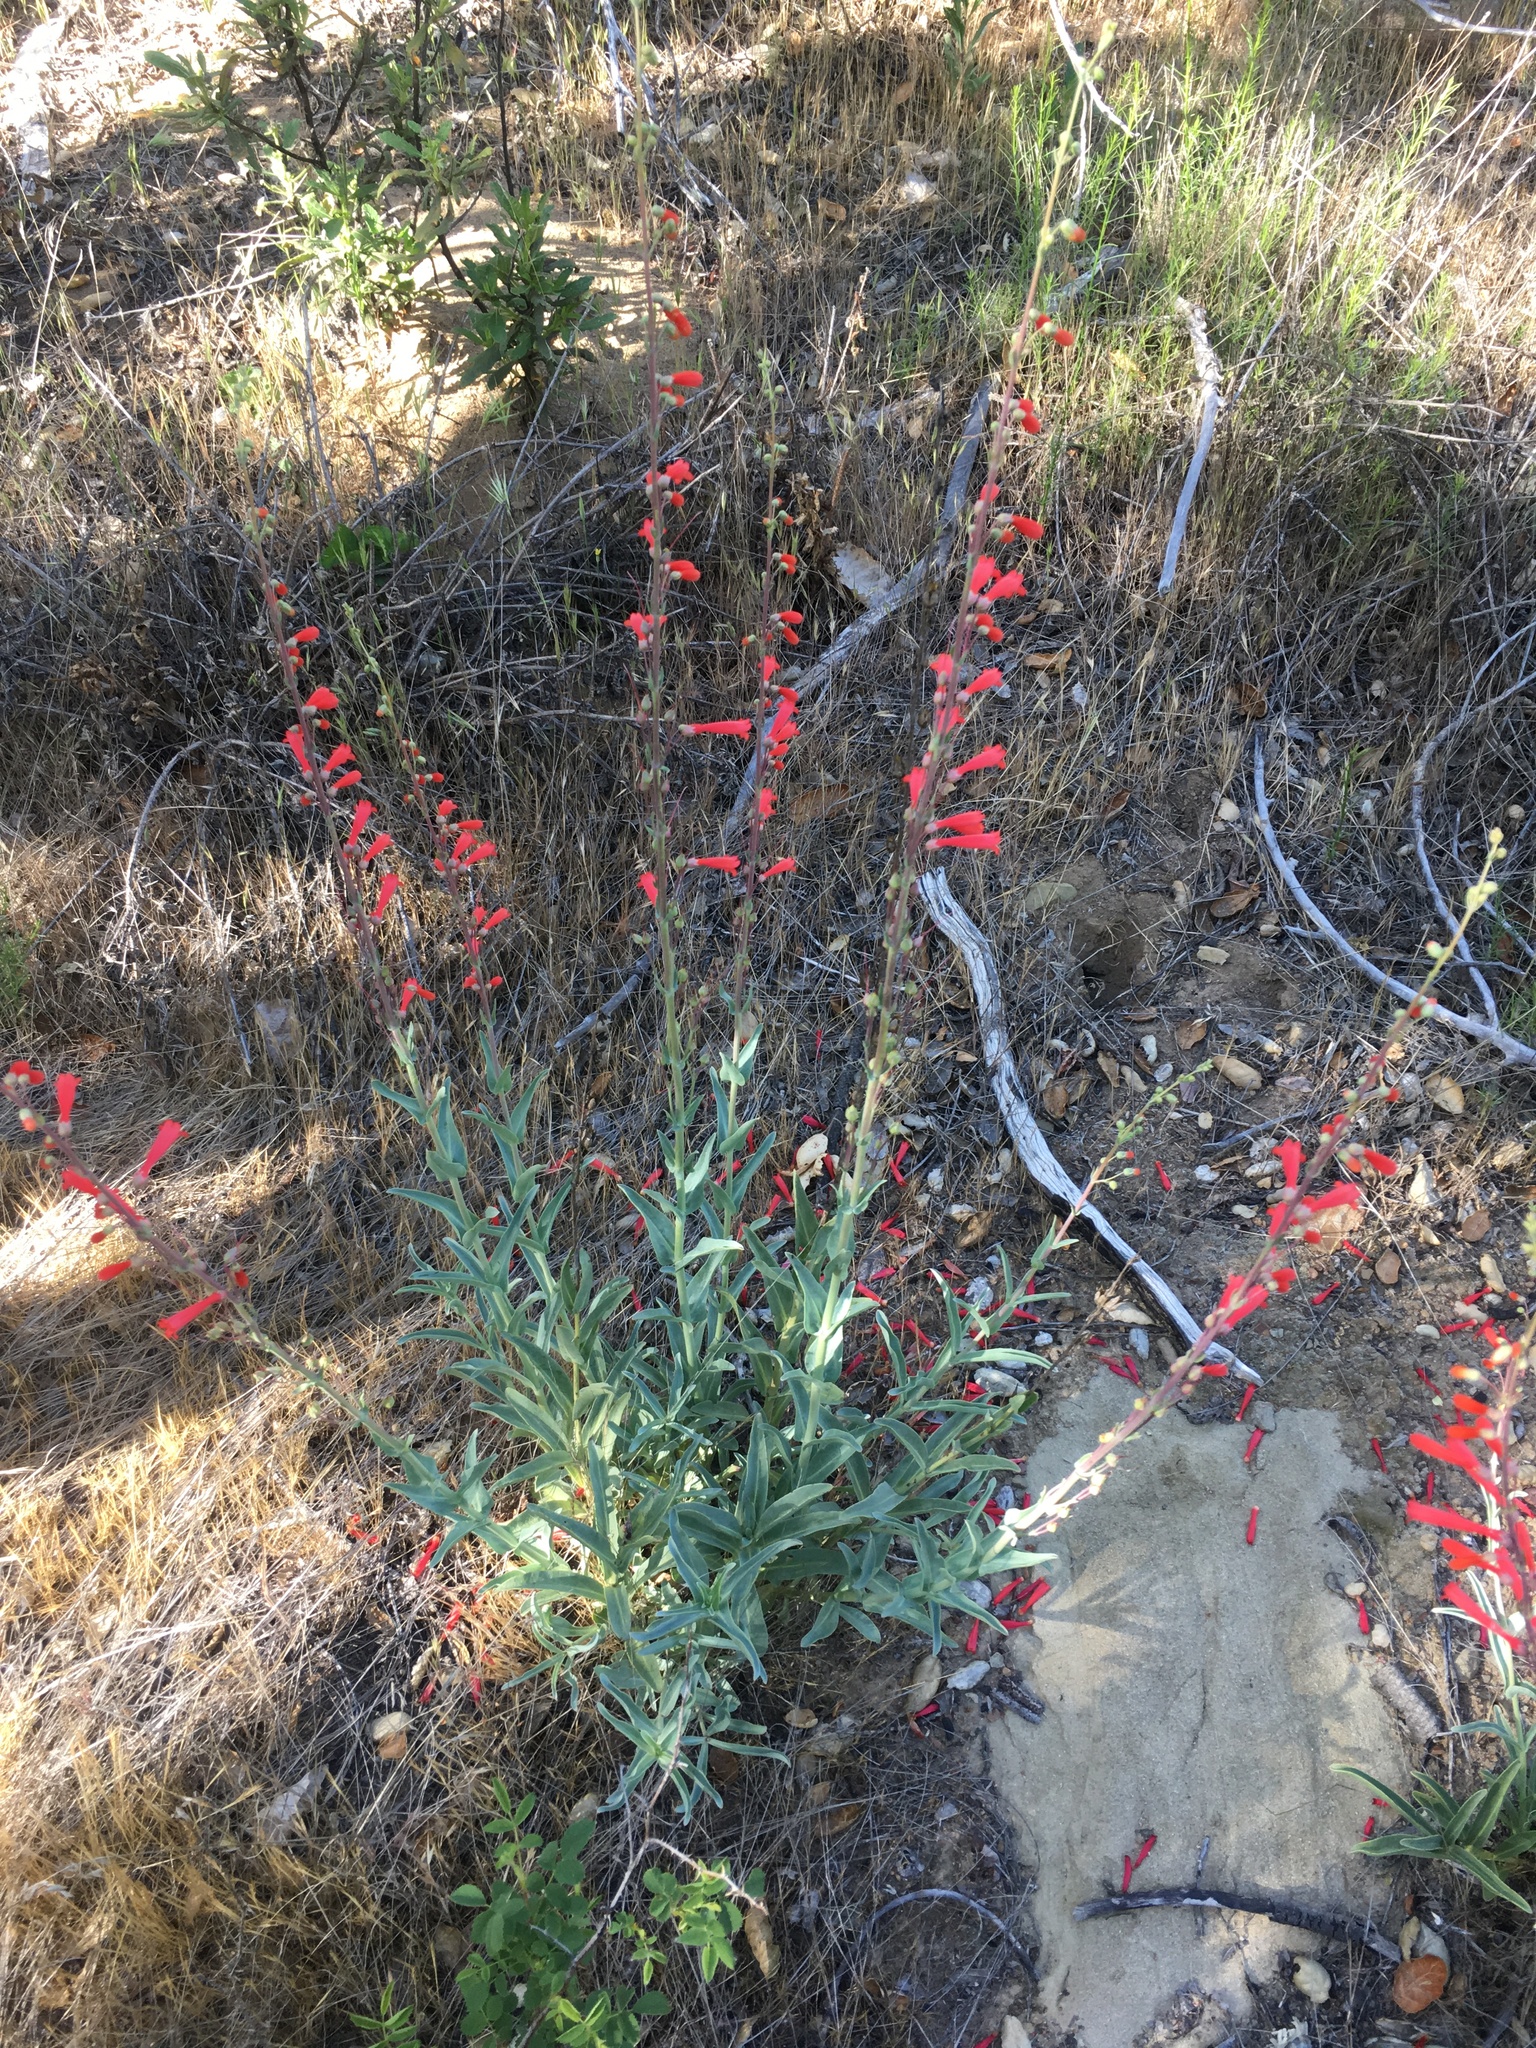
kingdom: Plantae
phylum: Tracheophyta
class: Magnoliopsida
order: Lamiales
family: Plantaginaceae
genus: Penstemon
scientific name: Penstemon centranthifolius
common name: Scarlet bugler
